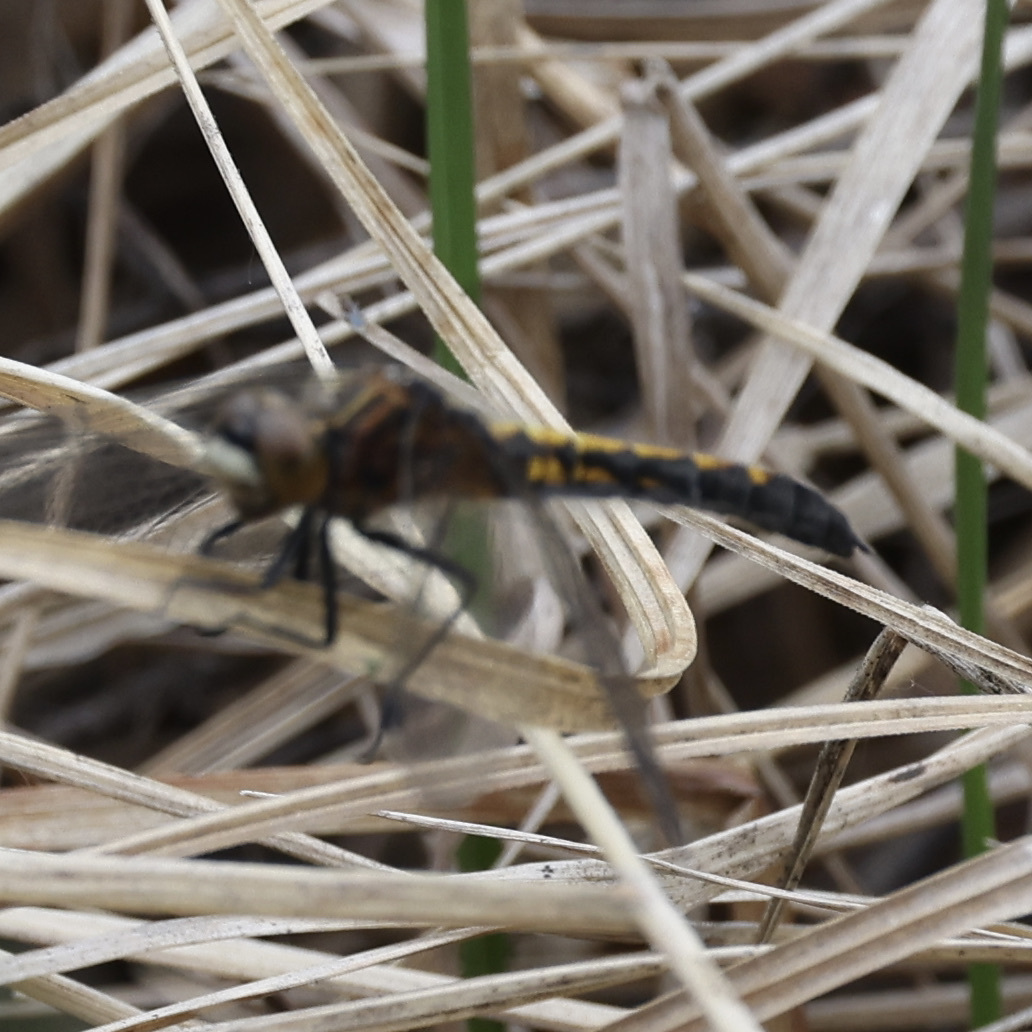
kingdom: Animalia
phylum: Arthropoda
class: Insecta
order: Odonata
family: Libellulidae
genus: Leucorrhinia
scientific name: Leucorrhinia intacta
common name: Dot-tailed whiteface
